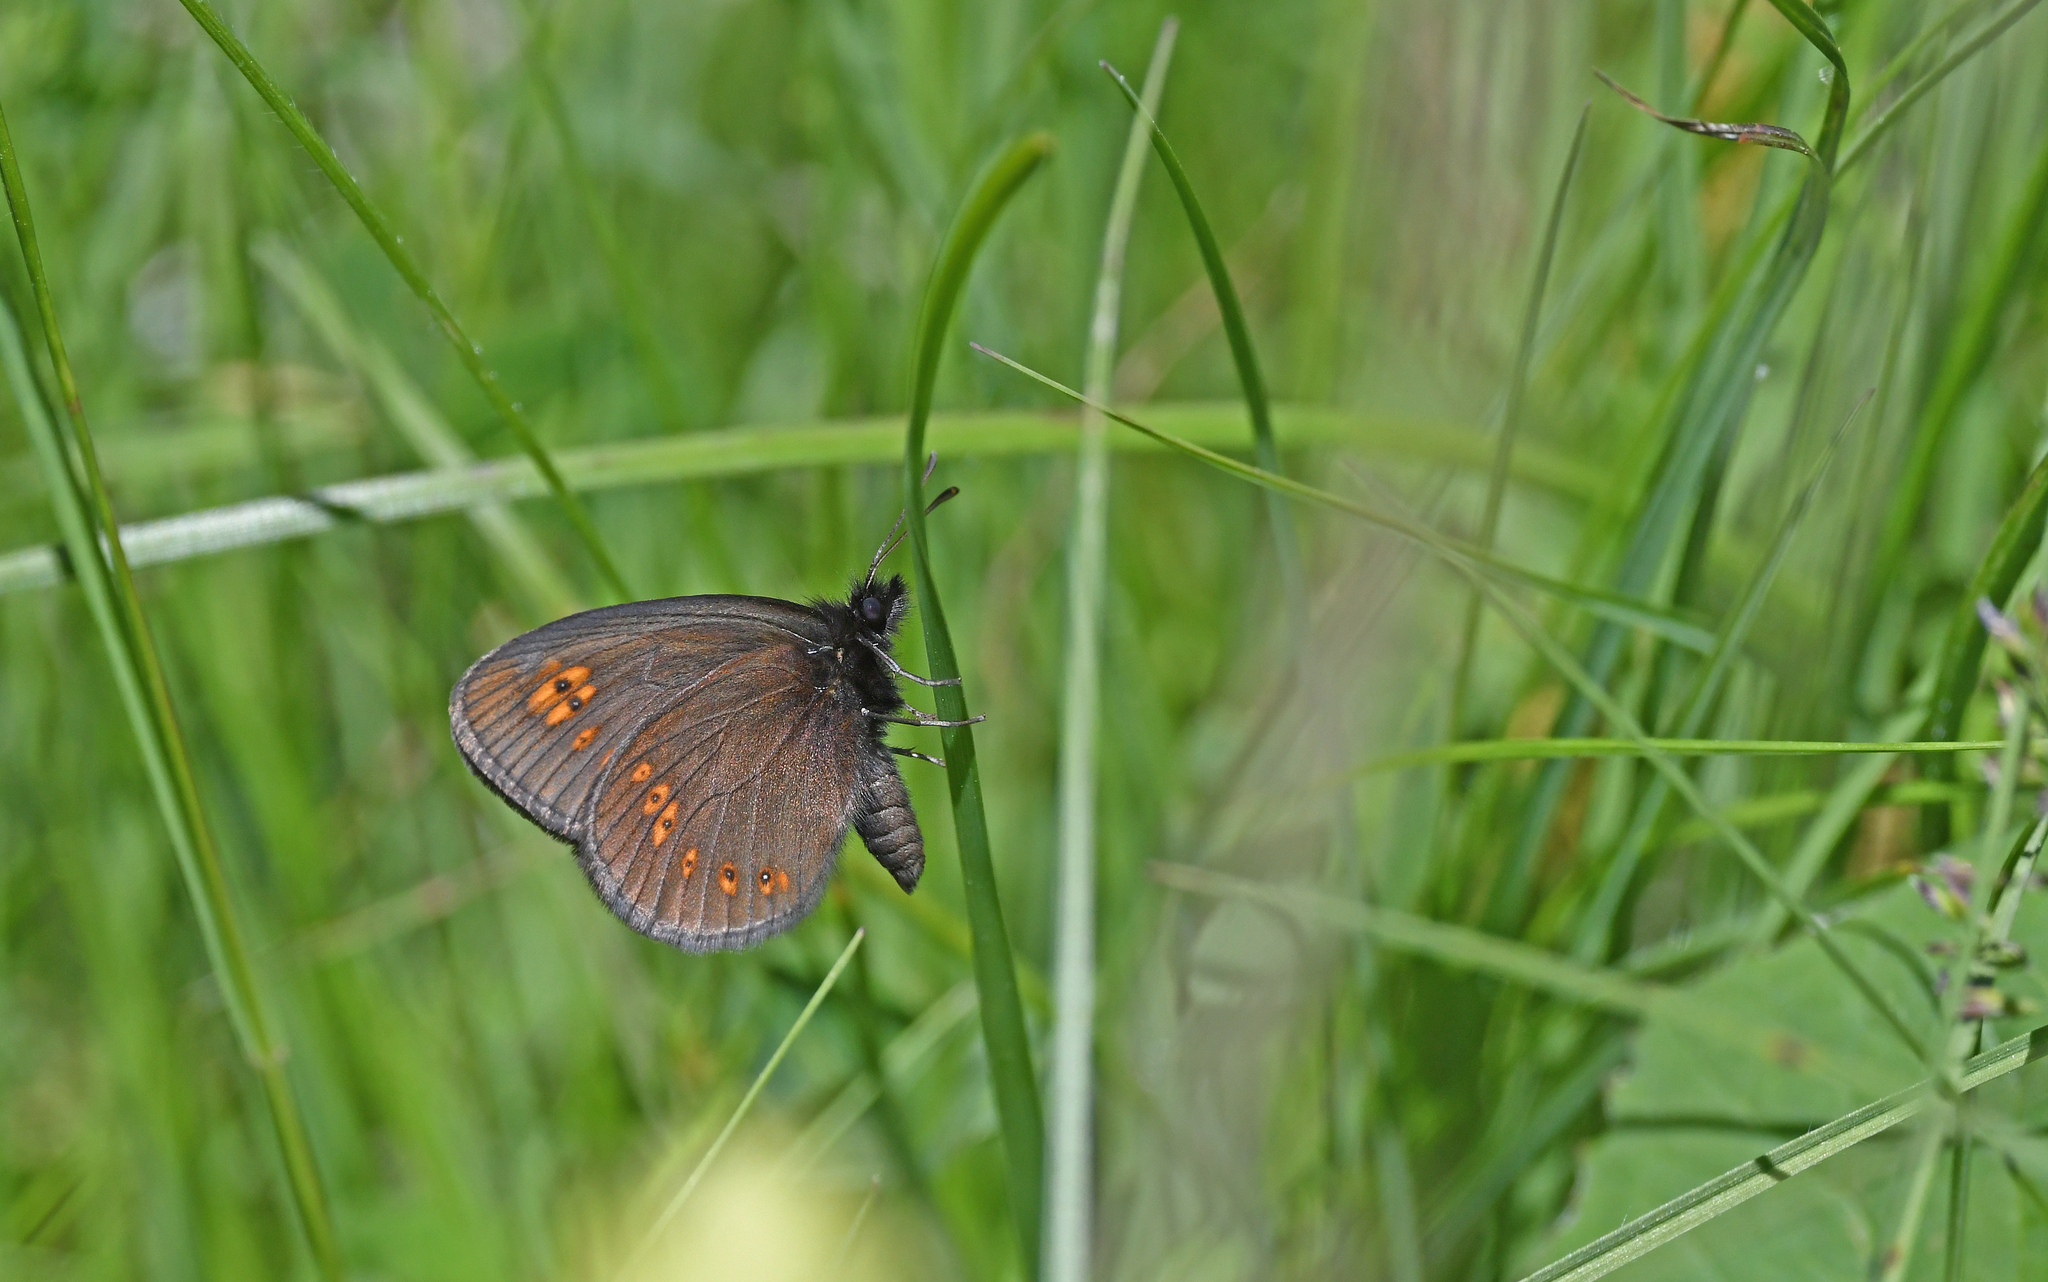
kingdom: Animalia
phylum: Arthropoda
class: Insecta
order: Lepidoptera
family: Nymphalidae
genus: Erebia
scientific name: Erebia alberganus
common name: Almond-eyed ringlet
